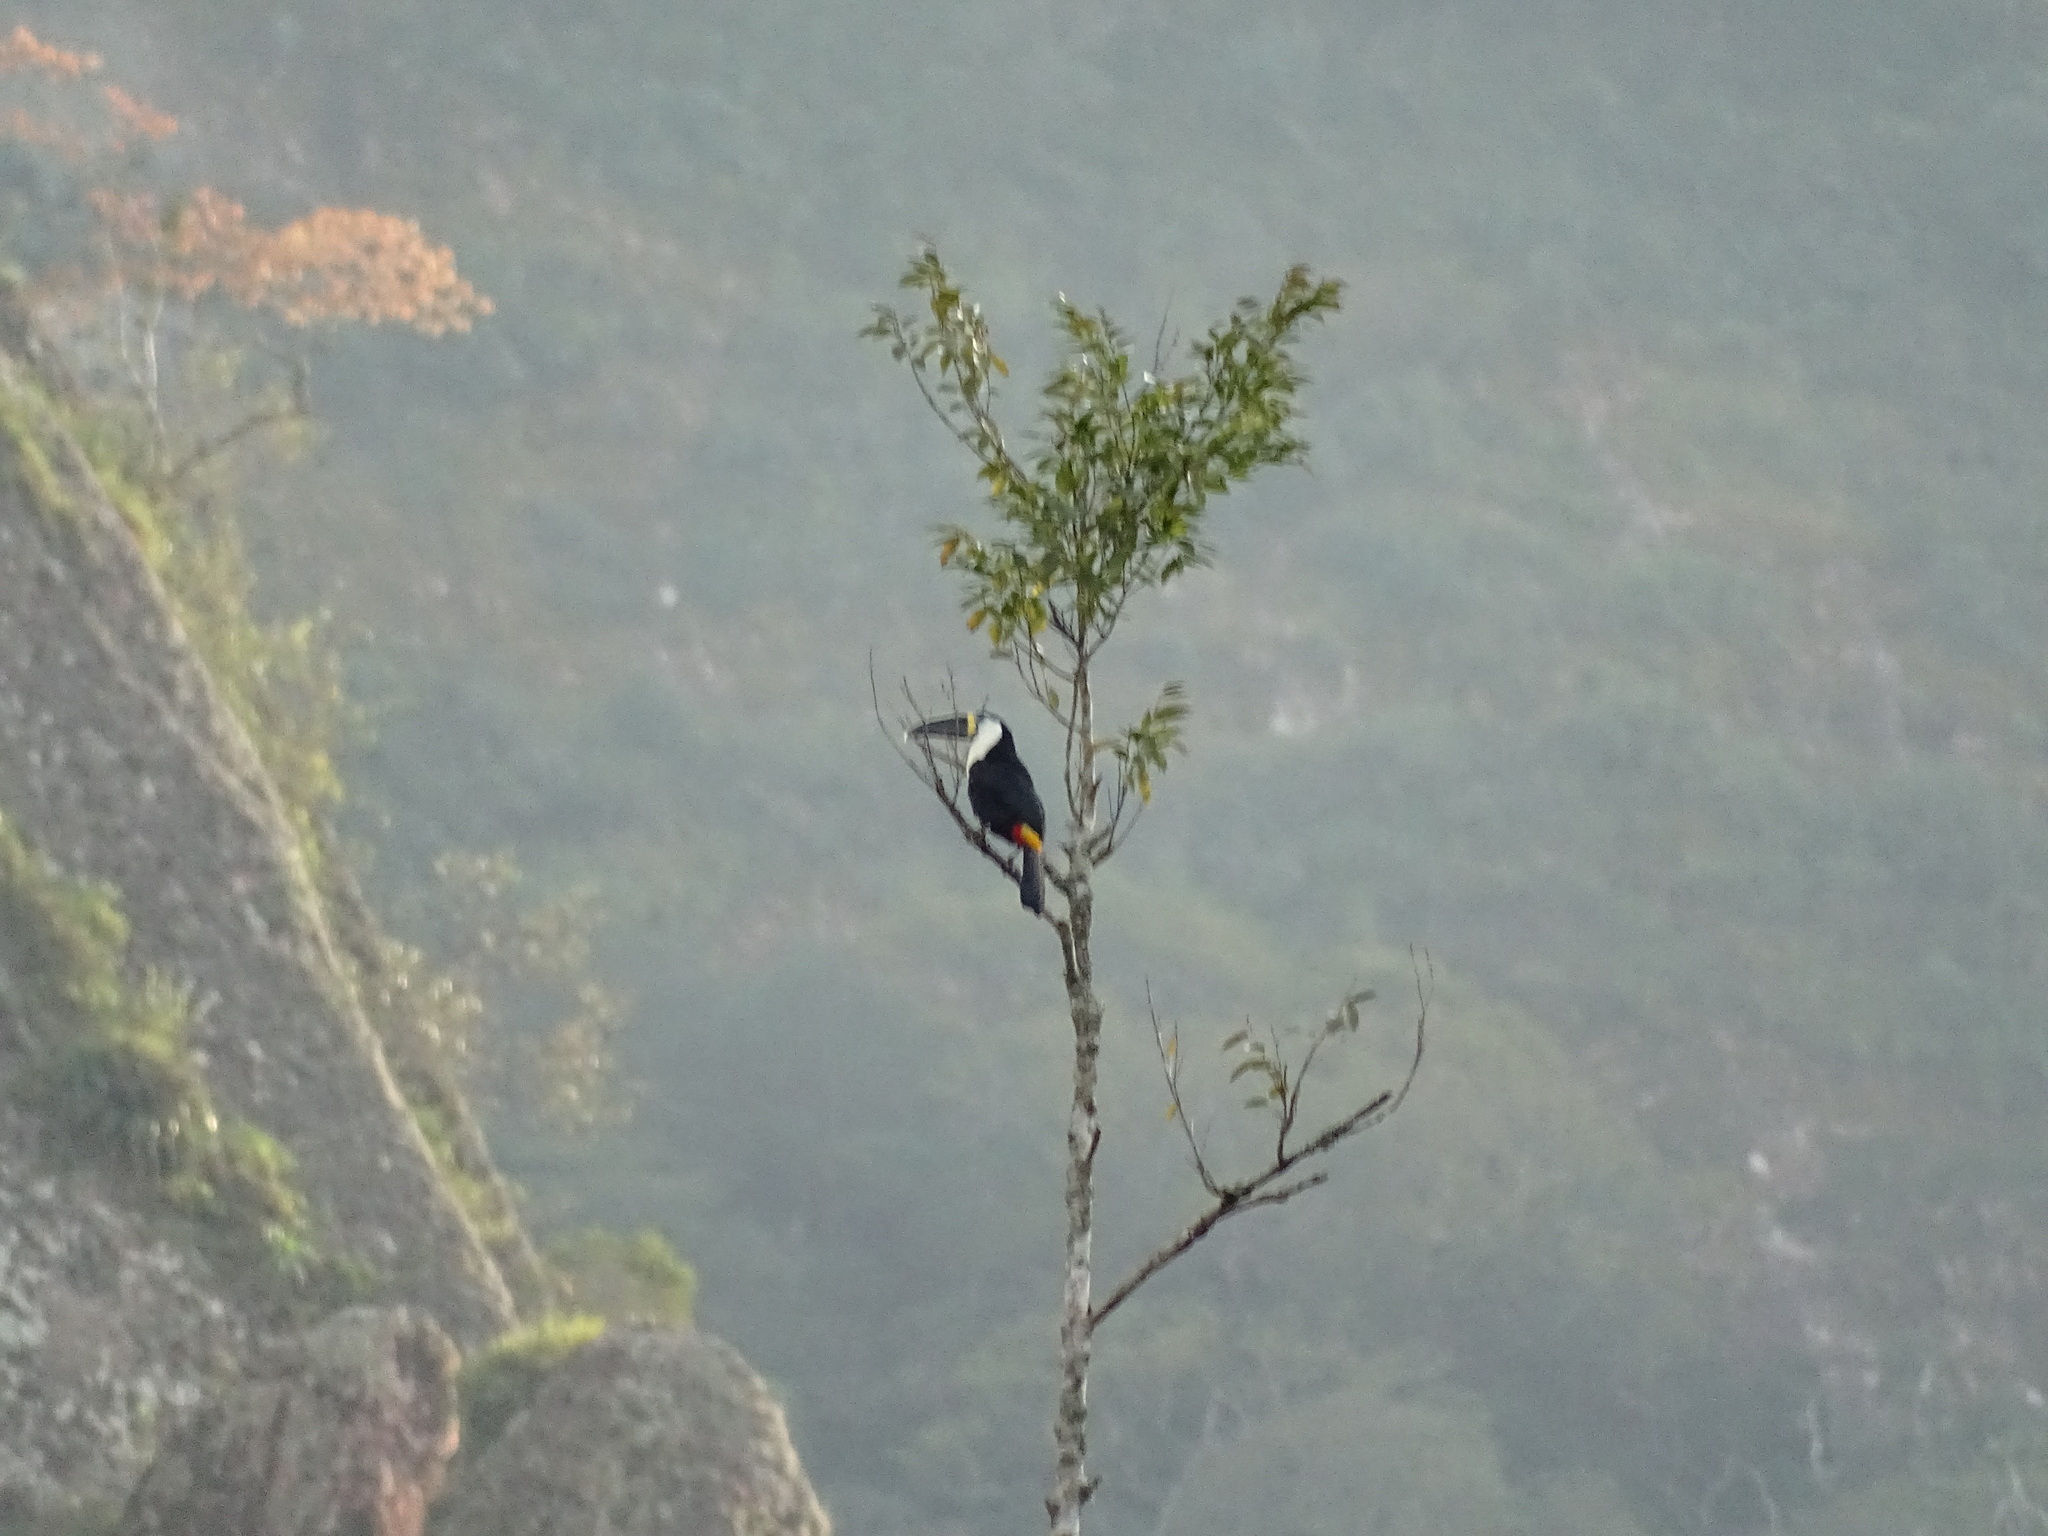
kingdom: Animalia
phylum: Chordata
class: Aves
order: Piciformes
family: Ramphastidae
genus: Ramphastos
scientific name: Ramphastos tucanus
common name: White-throated toucan
